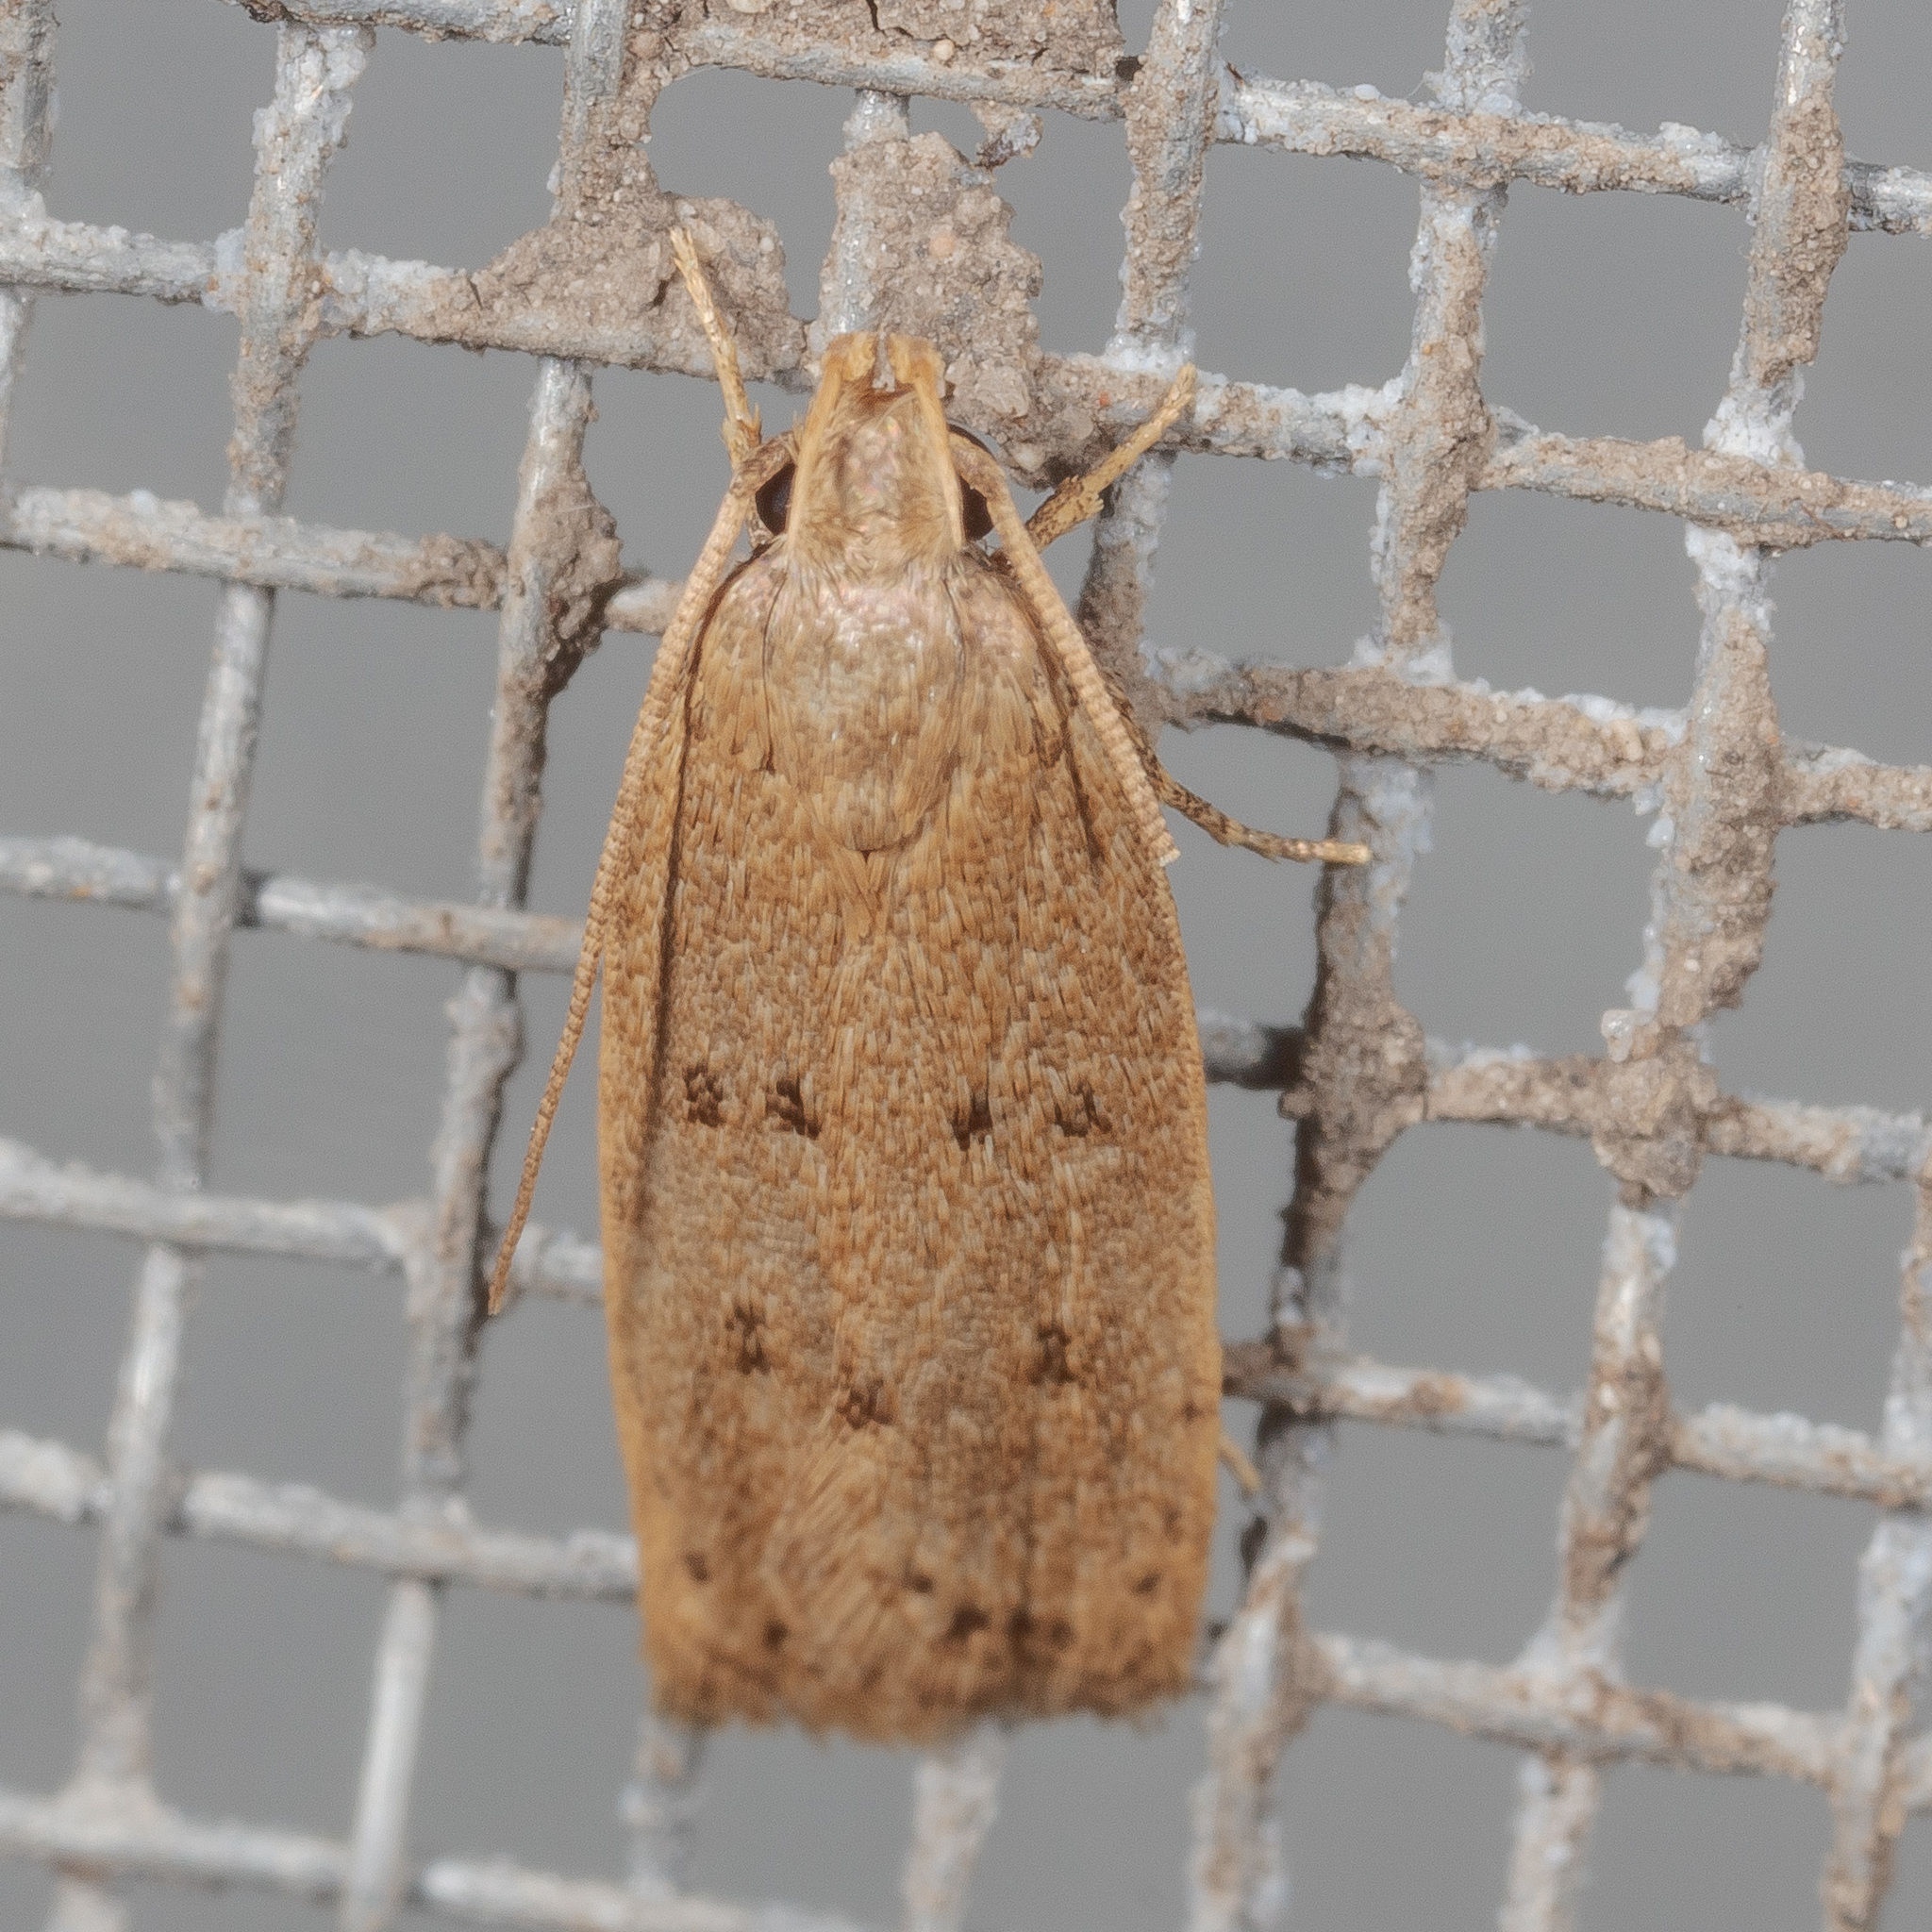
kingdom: Animalia
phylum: Arthropoda
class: Insecta
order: Lepidoptera
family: Autostichidae
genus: Autosticha
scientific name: Autosticha kyotensis
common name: Kyoto moth
